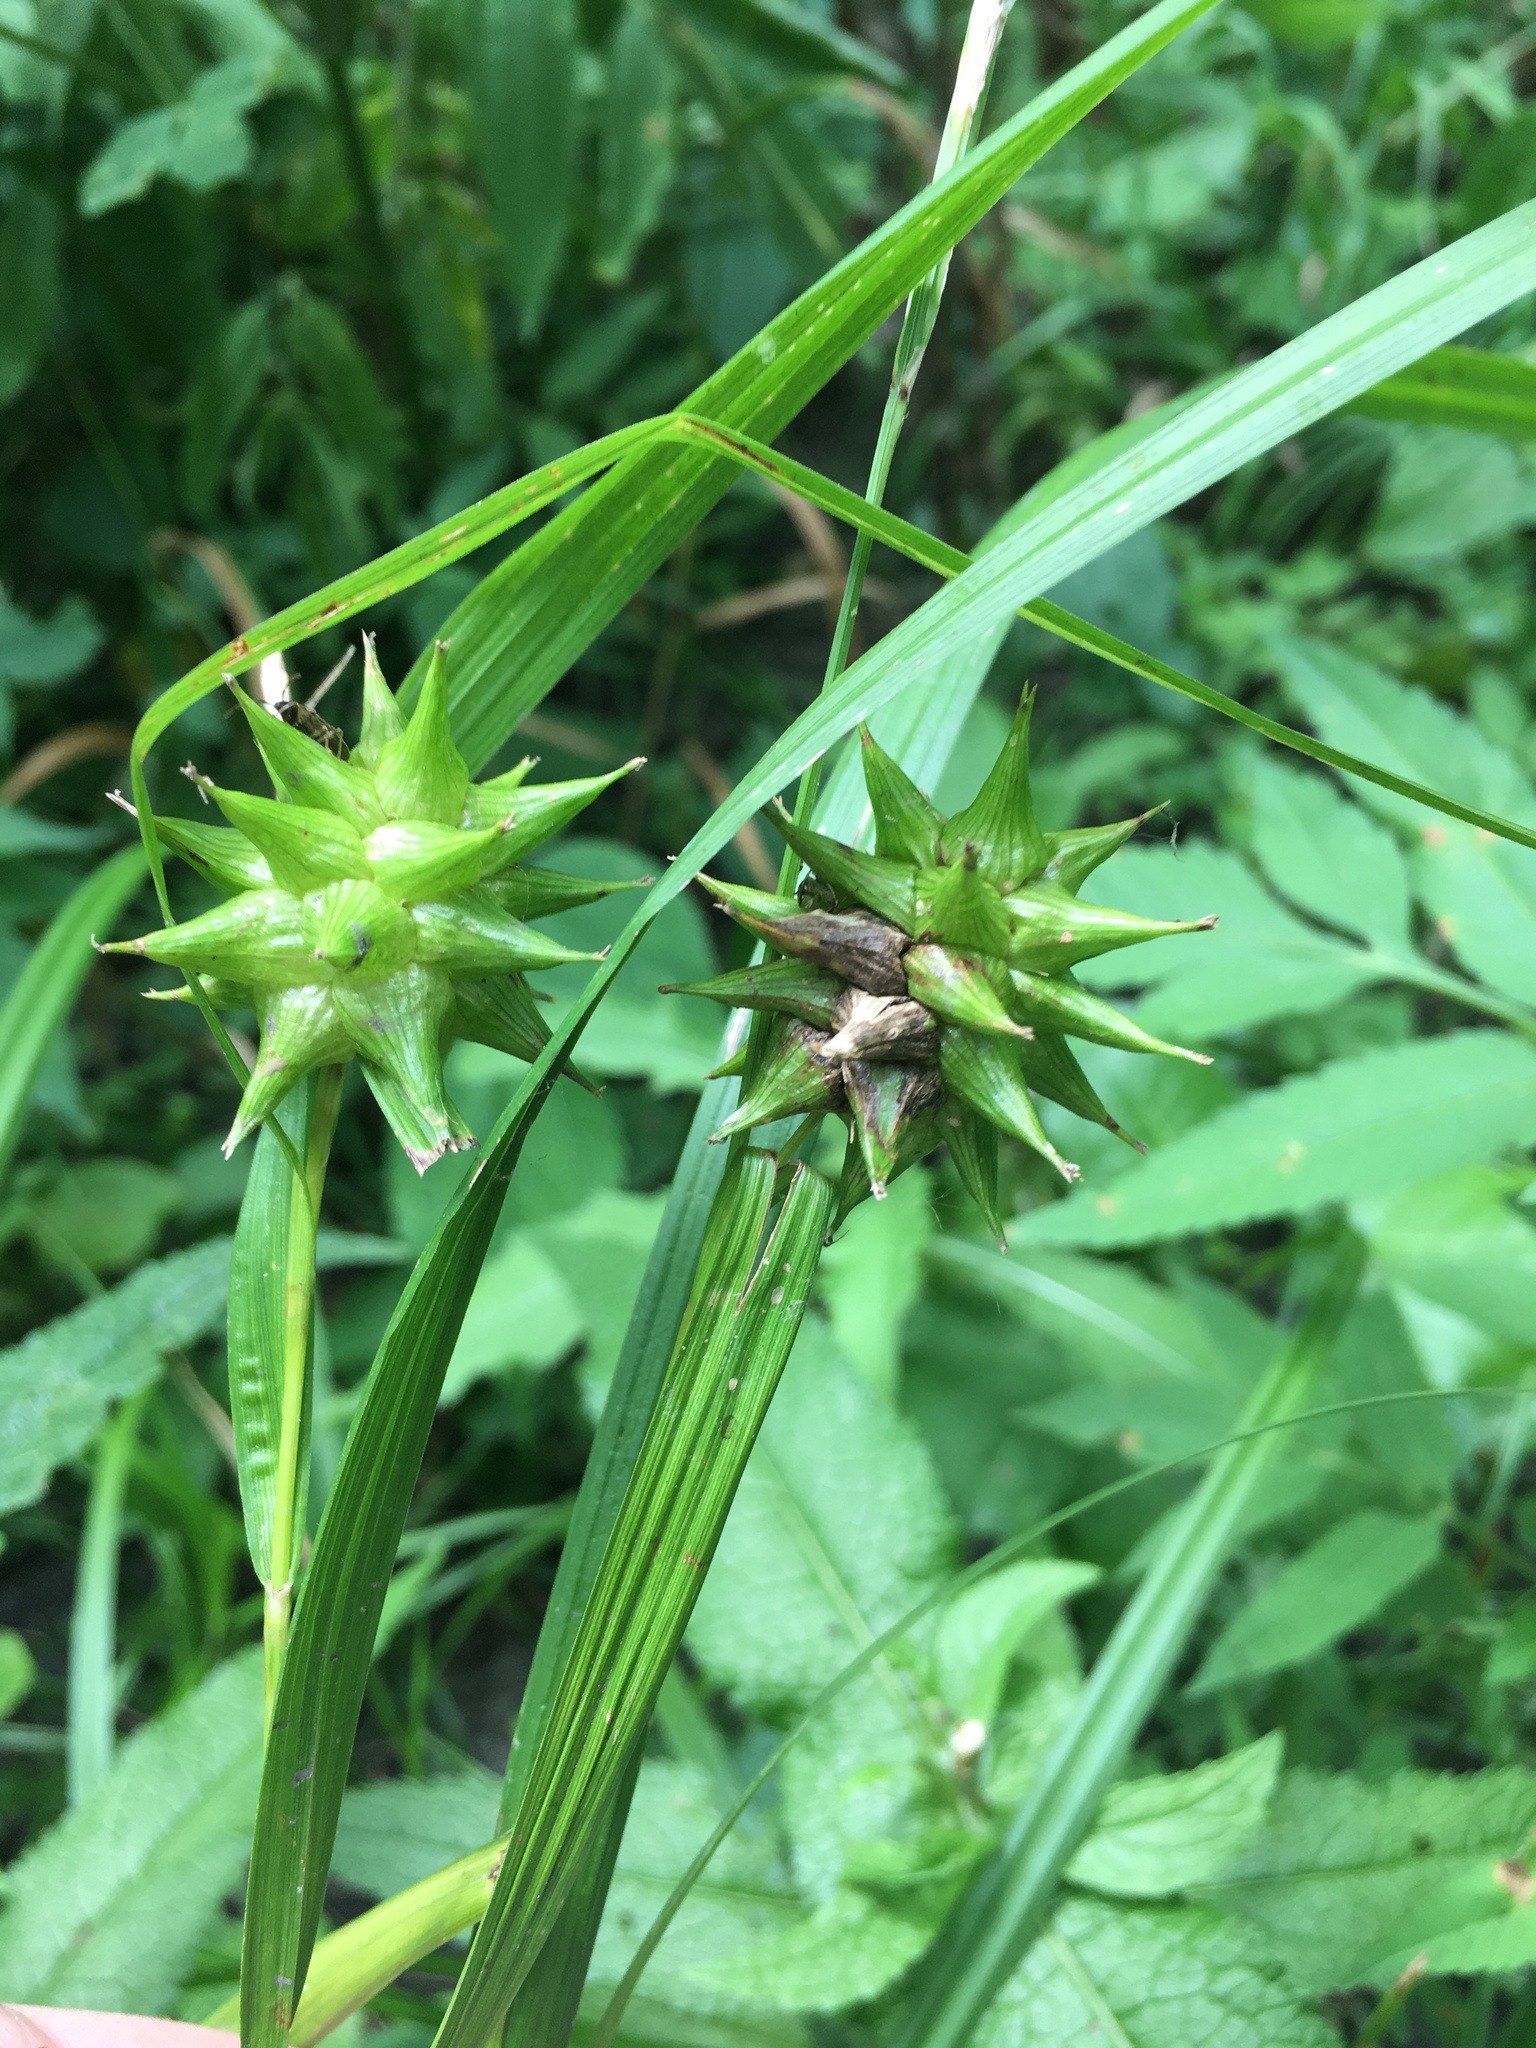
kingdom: Plantae
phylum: Tracheophyta
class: Liliopsida
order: Poales
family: Cyperaceae
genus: Carex
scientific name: Carex grayi
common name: Asa gray's sedge
